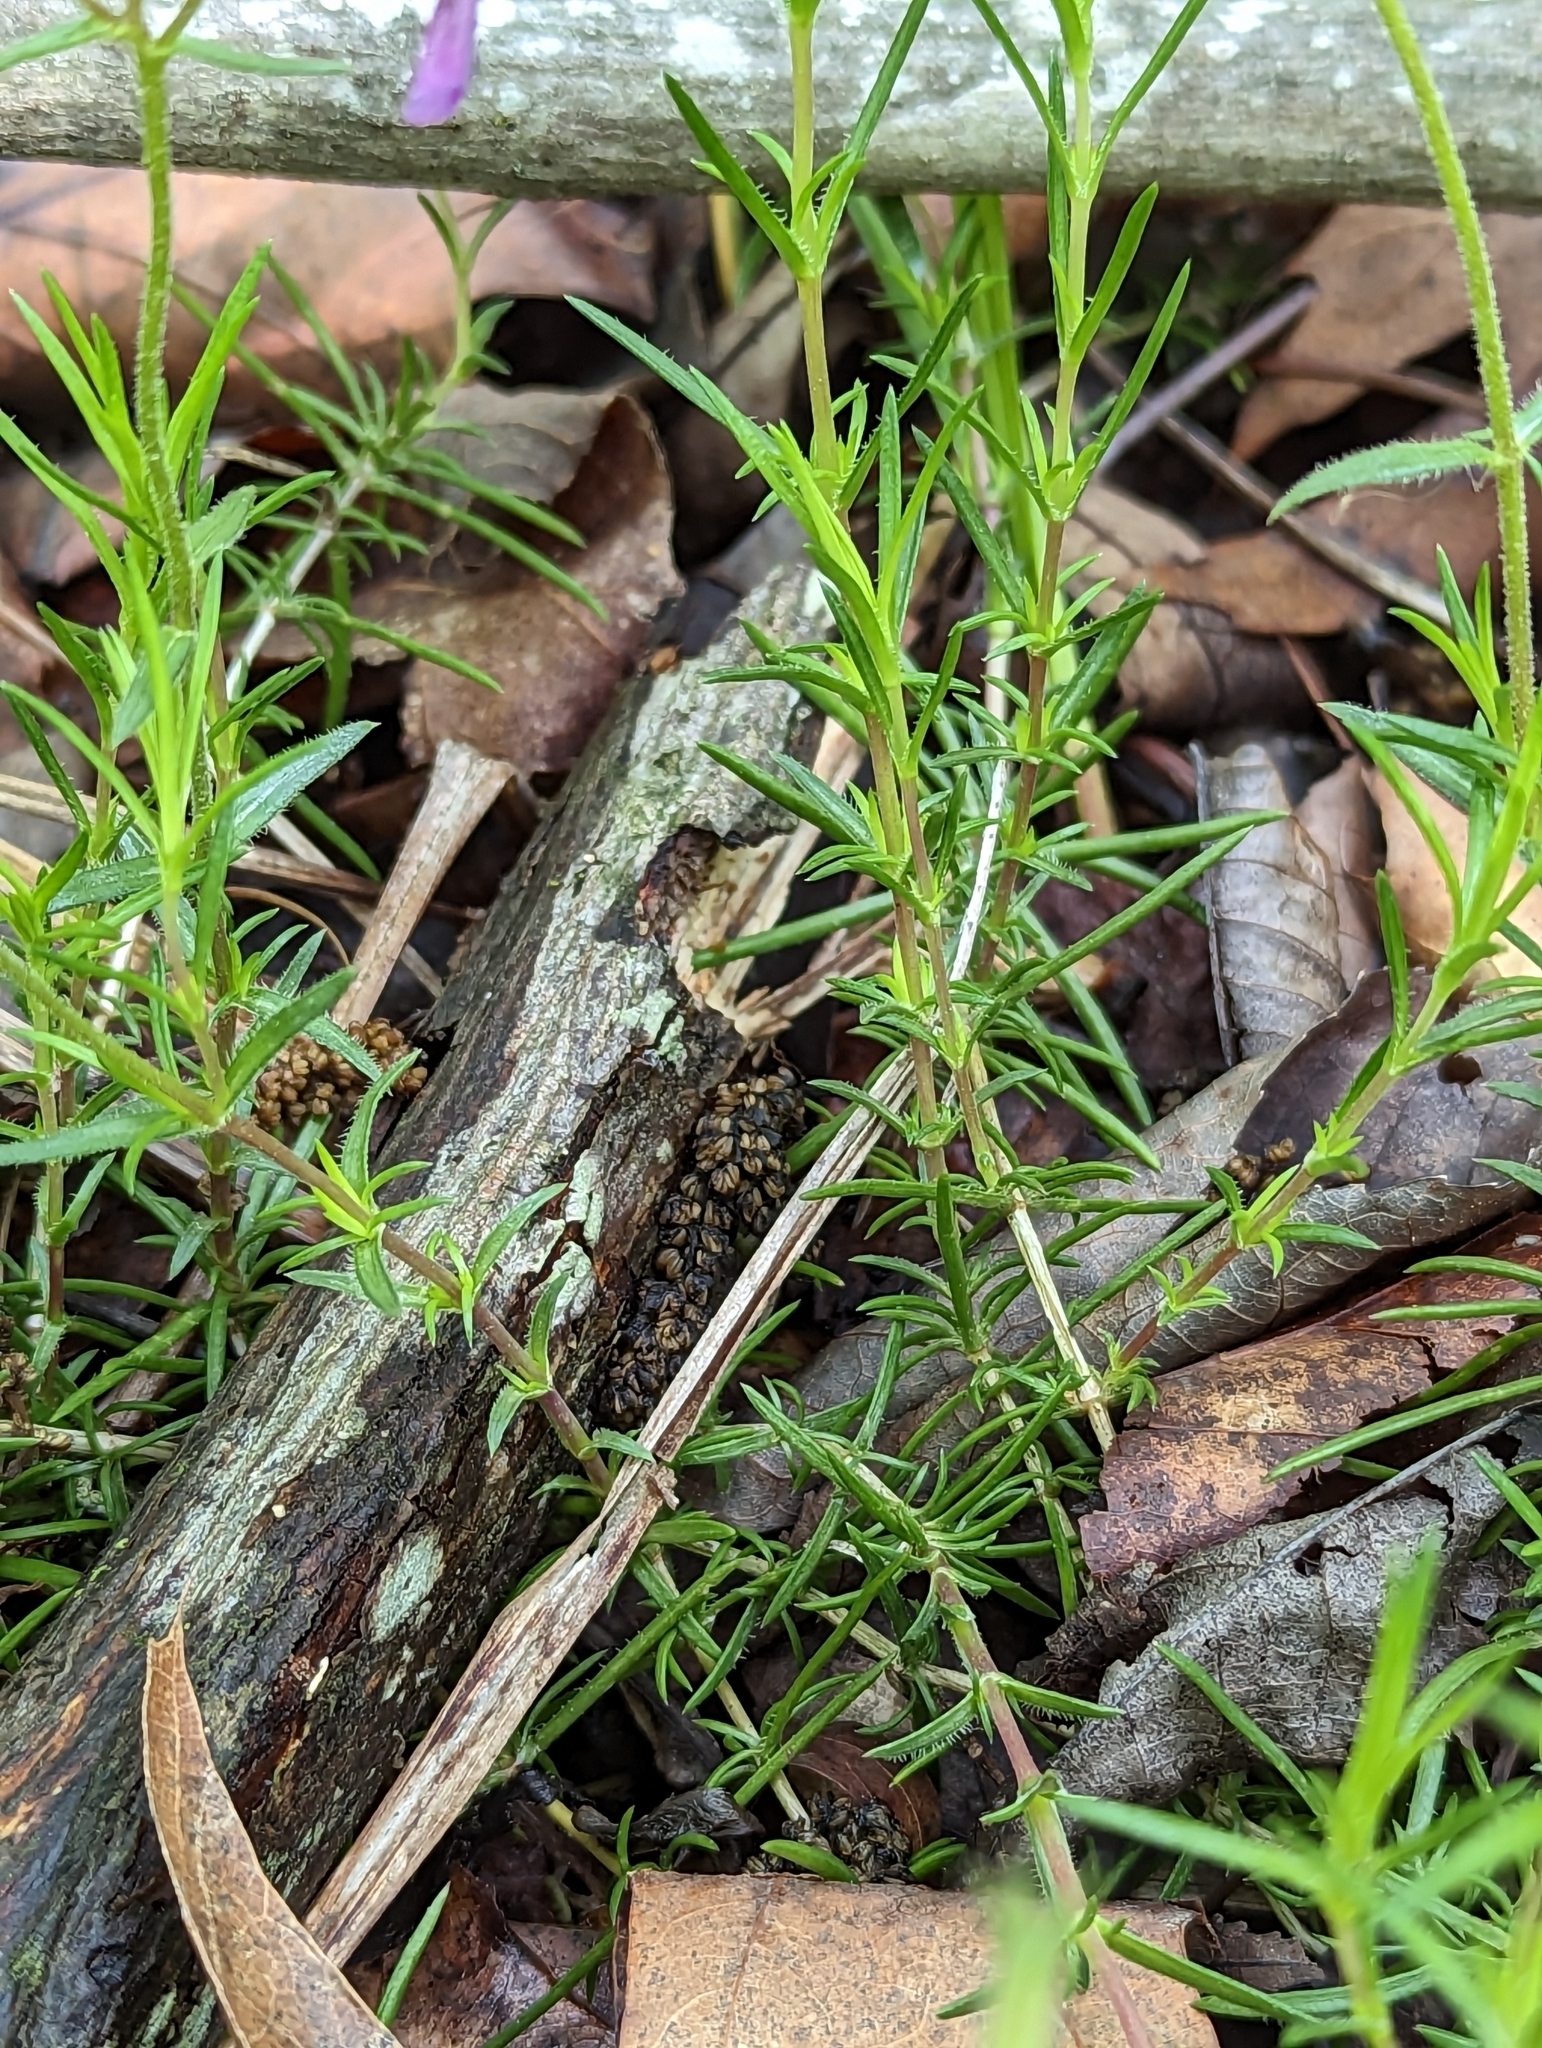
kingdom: Plantae
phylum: Tracheophyta
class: Magnoliopsida
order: Ericales
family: Polemoniaceae
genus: Phlox
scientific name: Phlox nivalis
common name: Trailing phlox
